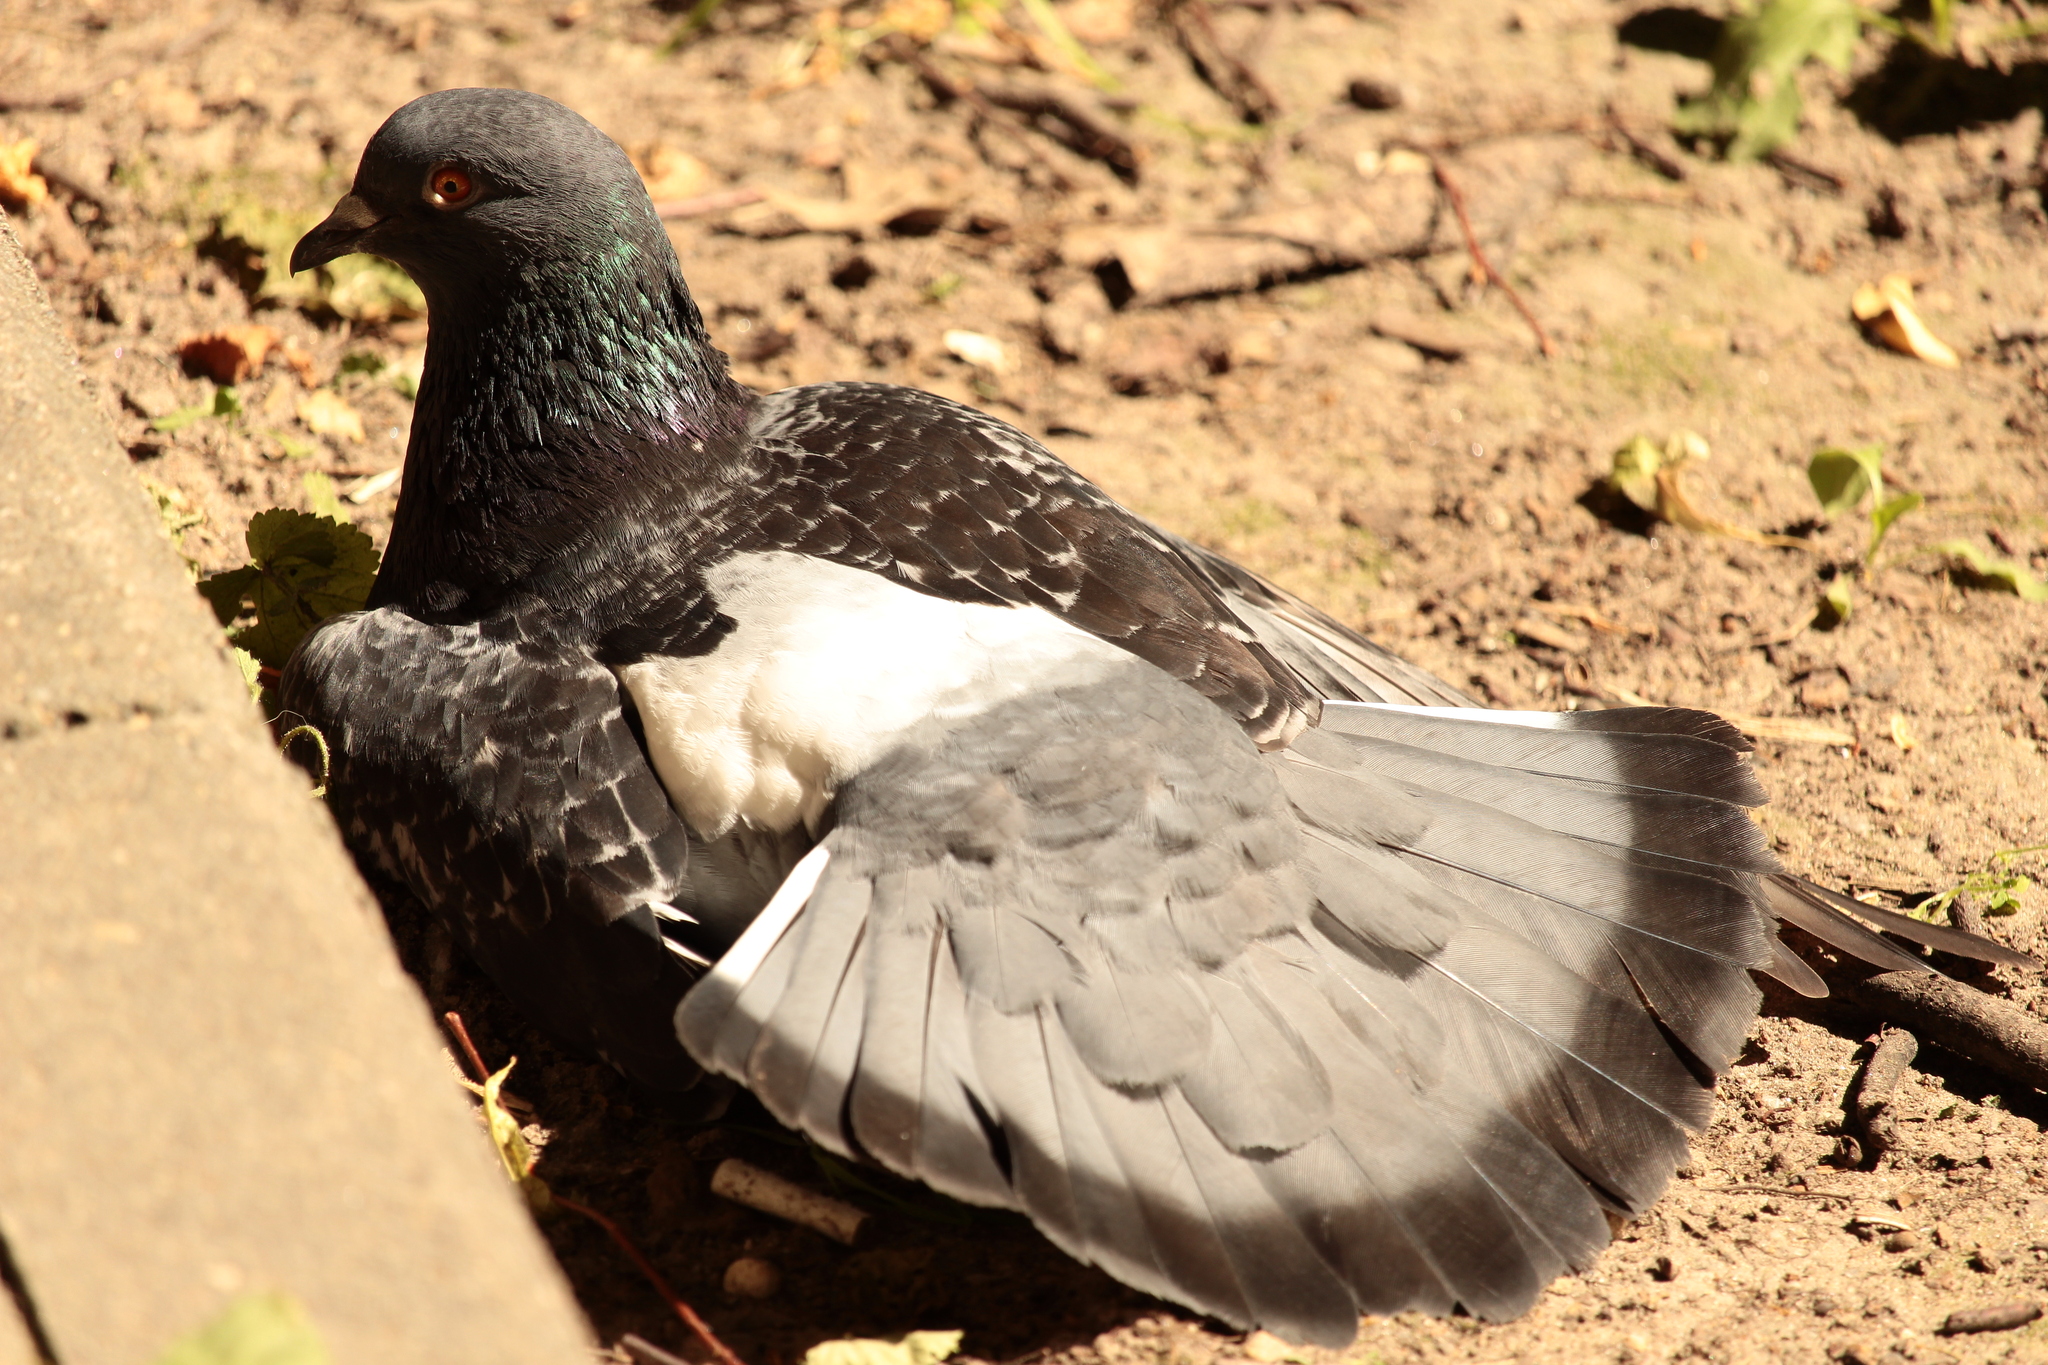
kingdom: Animalia
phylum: Chordata
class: Aves
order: Columbiformes
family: Columbidae
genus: Columba
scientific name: Columba livia
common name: Rock pigeon
